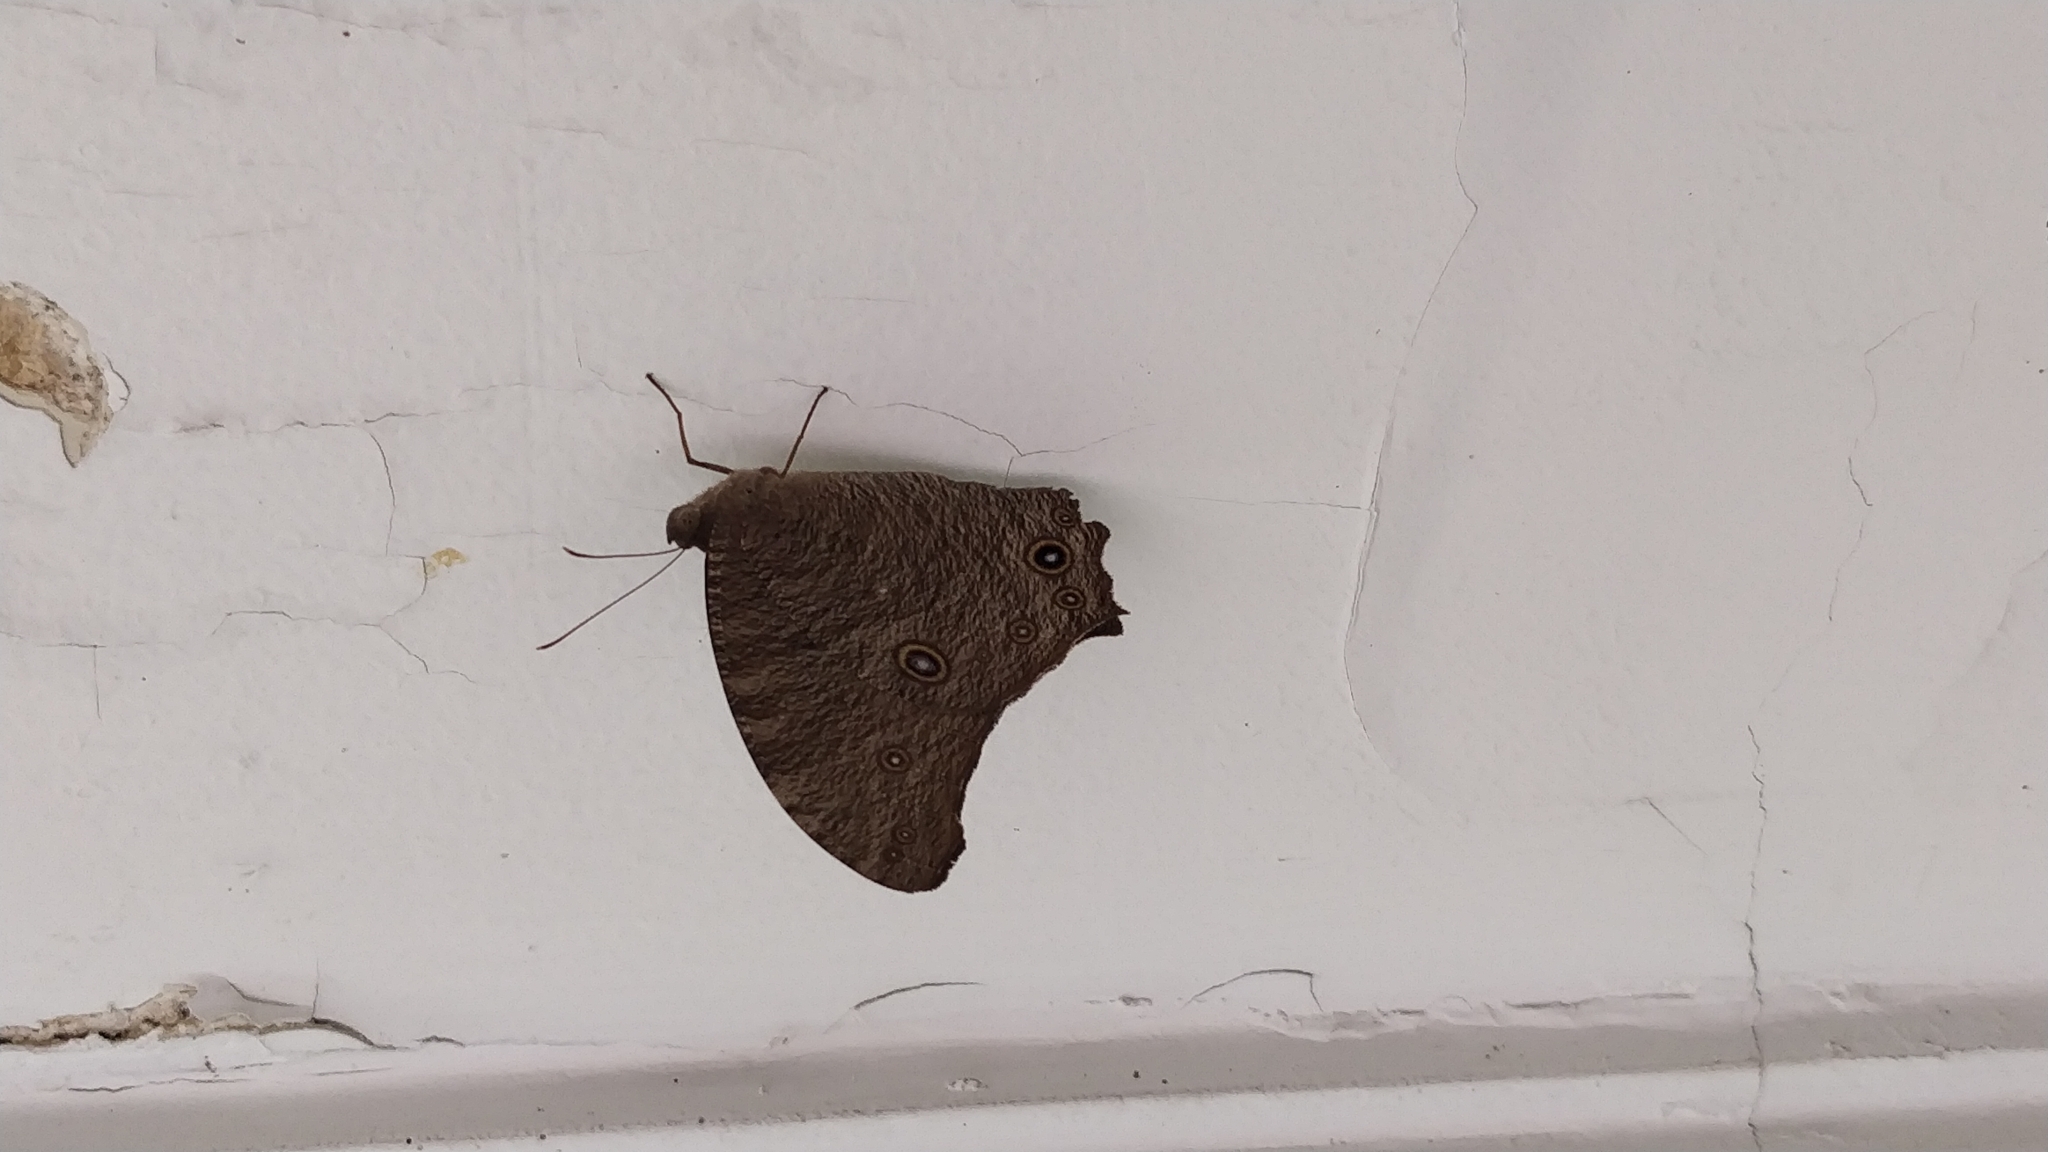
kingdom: Animalia
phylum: Arthropoda
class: Insecta
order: Lepidoptera
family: Nymphalidae
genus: Melanitis
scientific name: Melanitis leda
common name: Twilight brown
